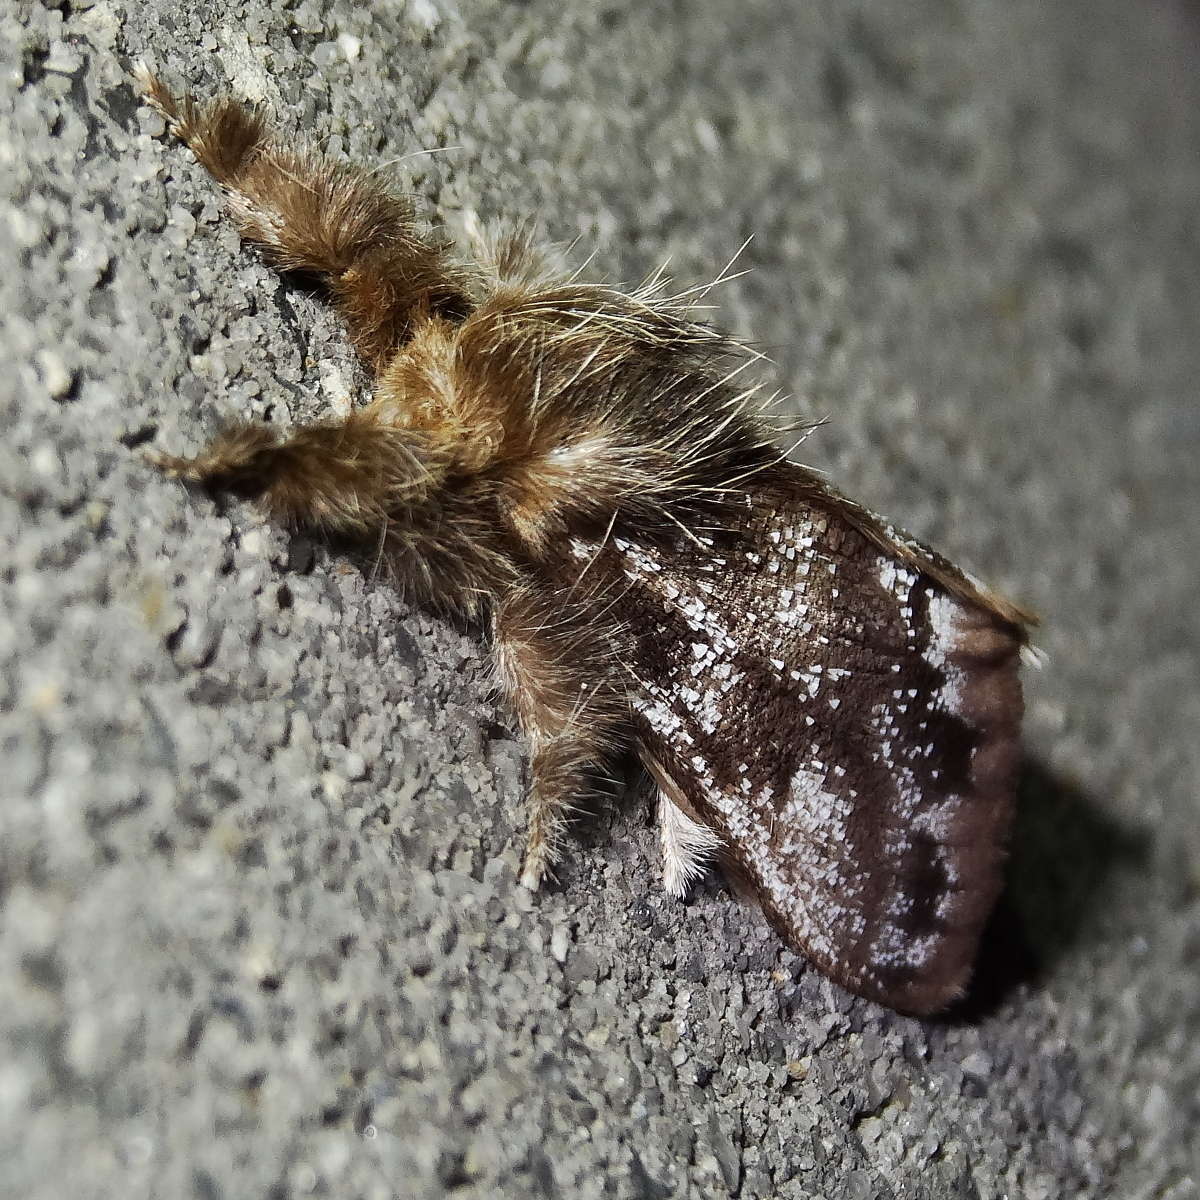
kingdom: Animalia
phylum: Arthropoda
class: Insecta
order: Lepidoptera
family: Erebidae
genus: Euproctis
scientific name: Euproctis
